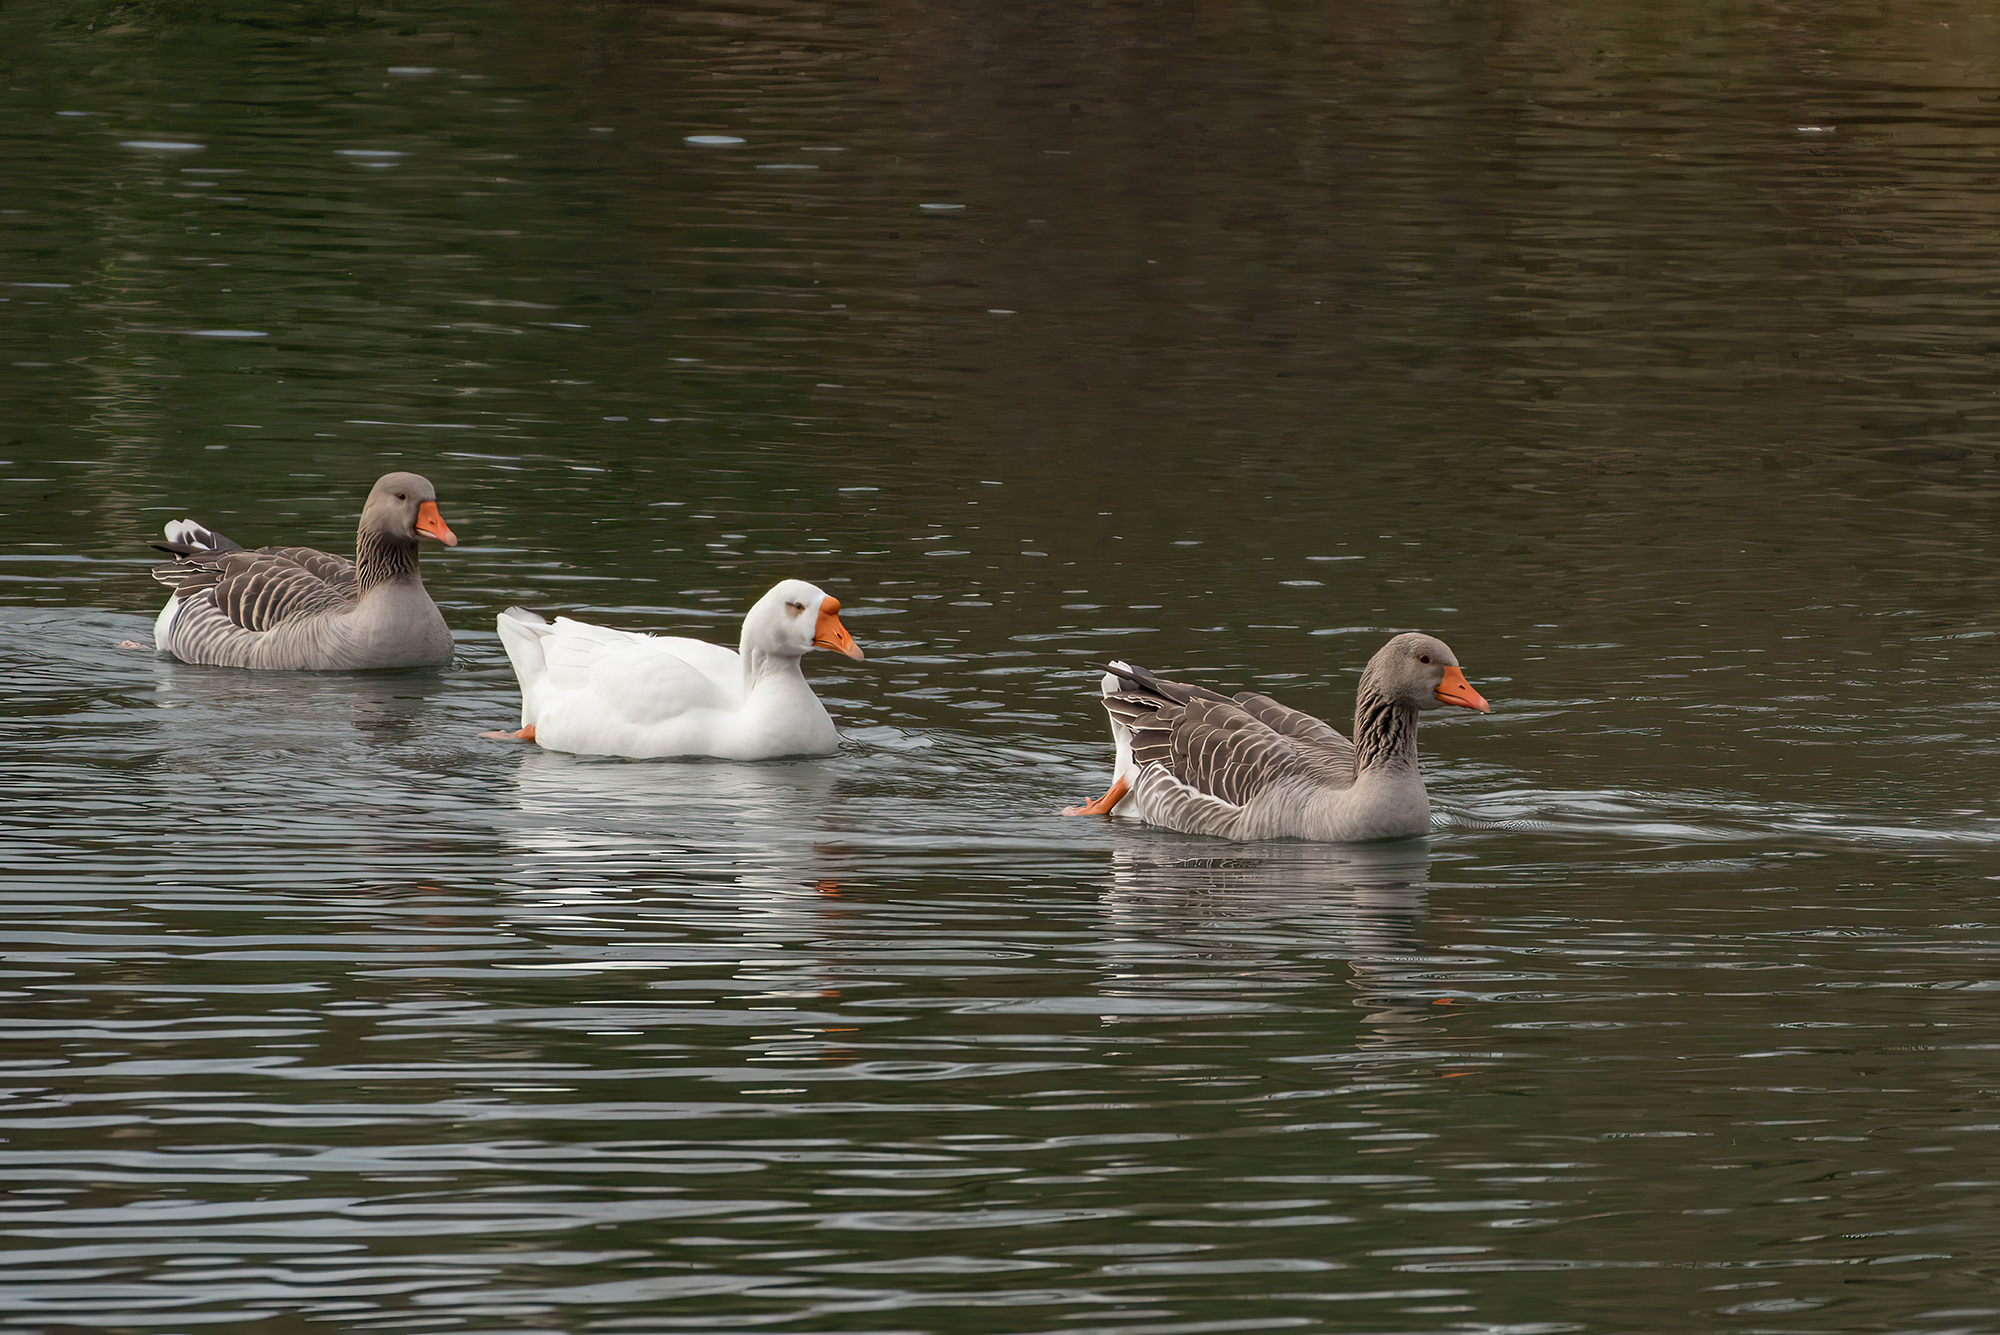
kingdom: Animalia
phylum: Chordata
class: Aves
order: Anseriformes
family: Anatidae
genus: Anser
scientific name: Anser anser
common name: Greylag goose
